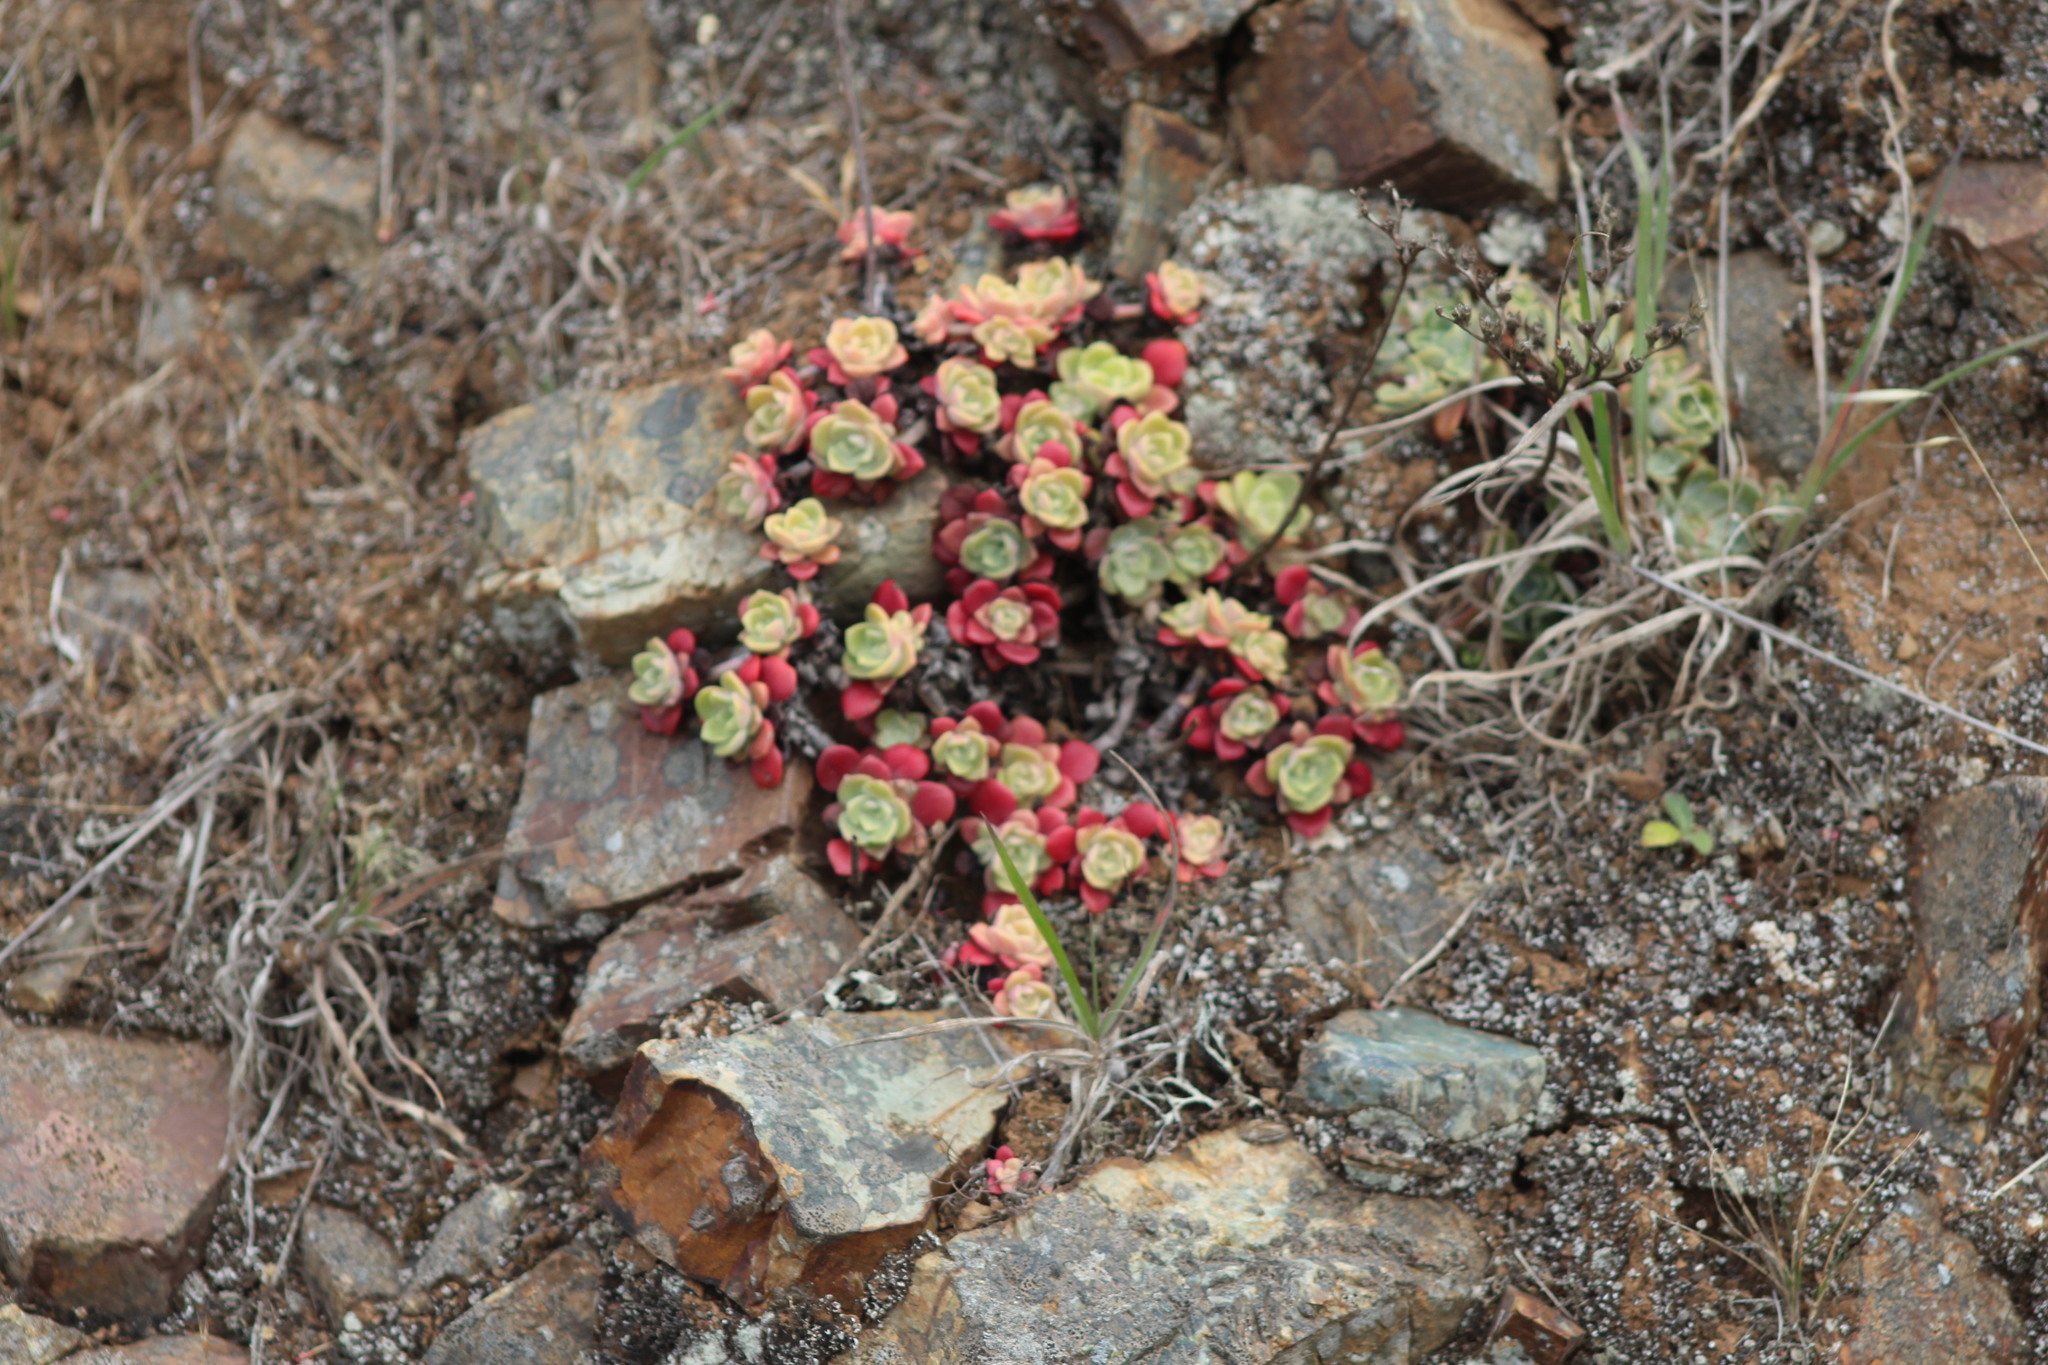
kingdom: Plantae
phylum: Tracheophyta
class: Magnoliopsida
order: Saxifragales
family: Crassulaceae
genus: Sedum
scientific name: Sedum spathulifolium
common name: Colorado stonecrop
